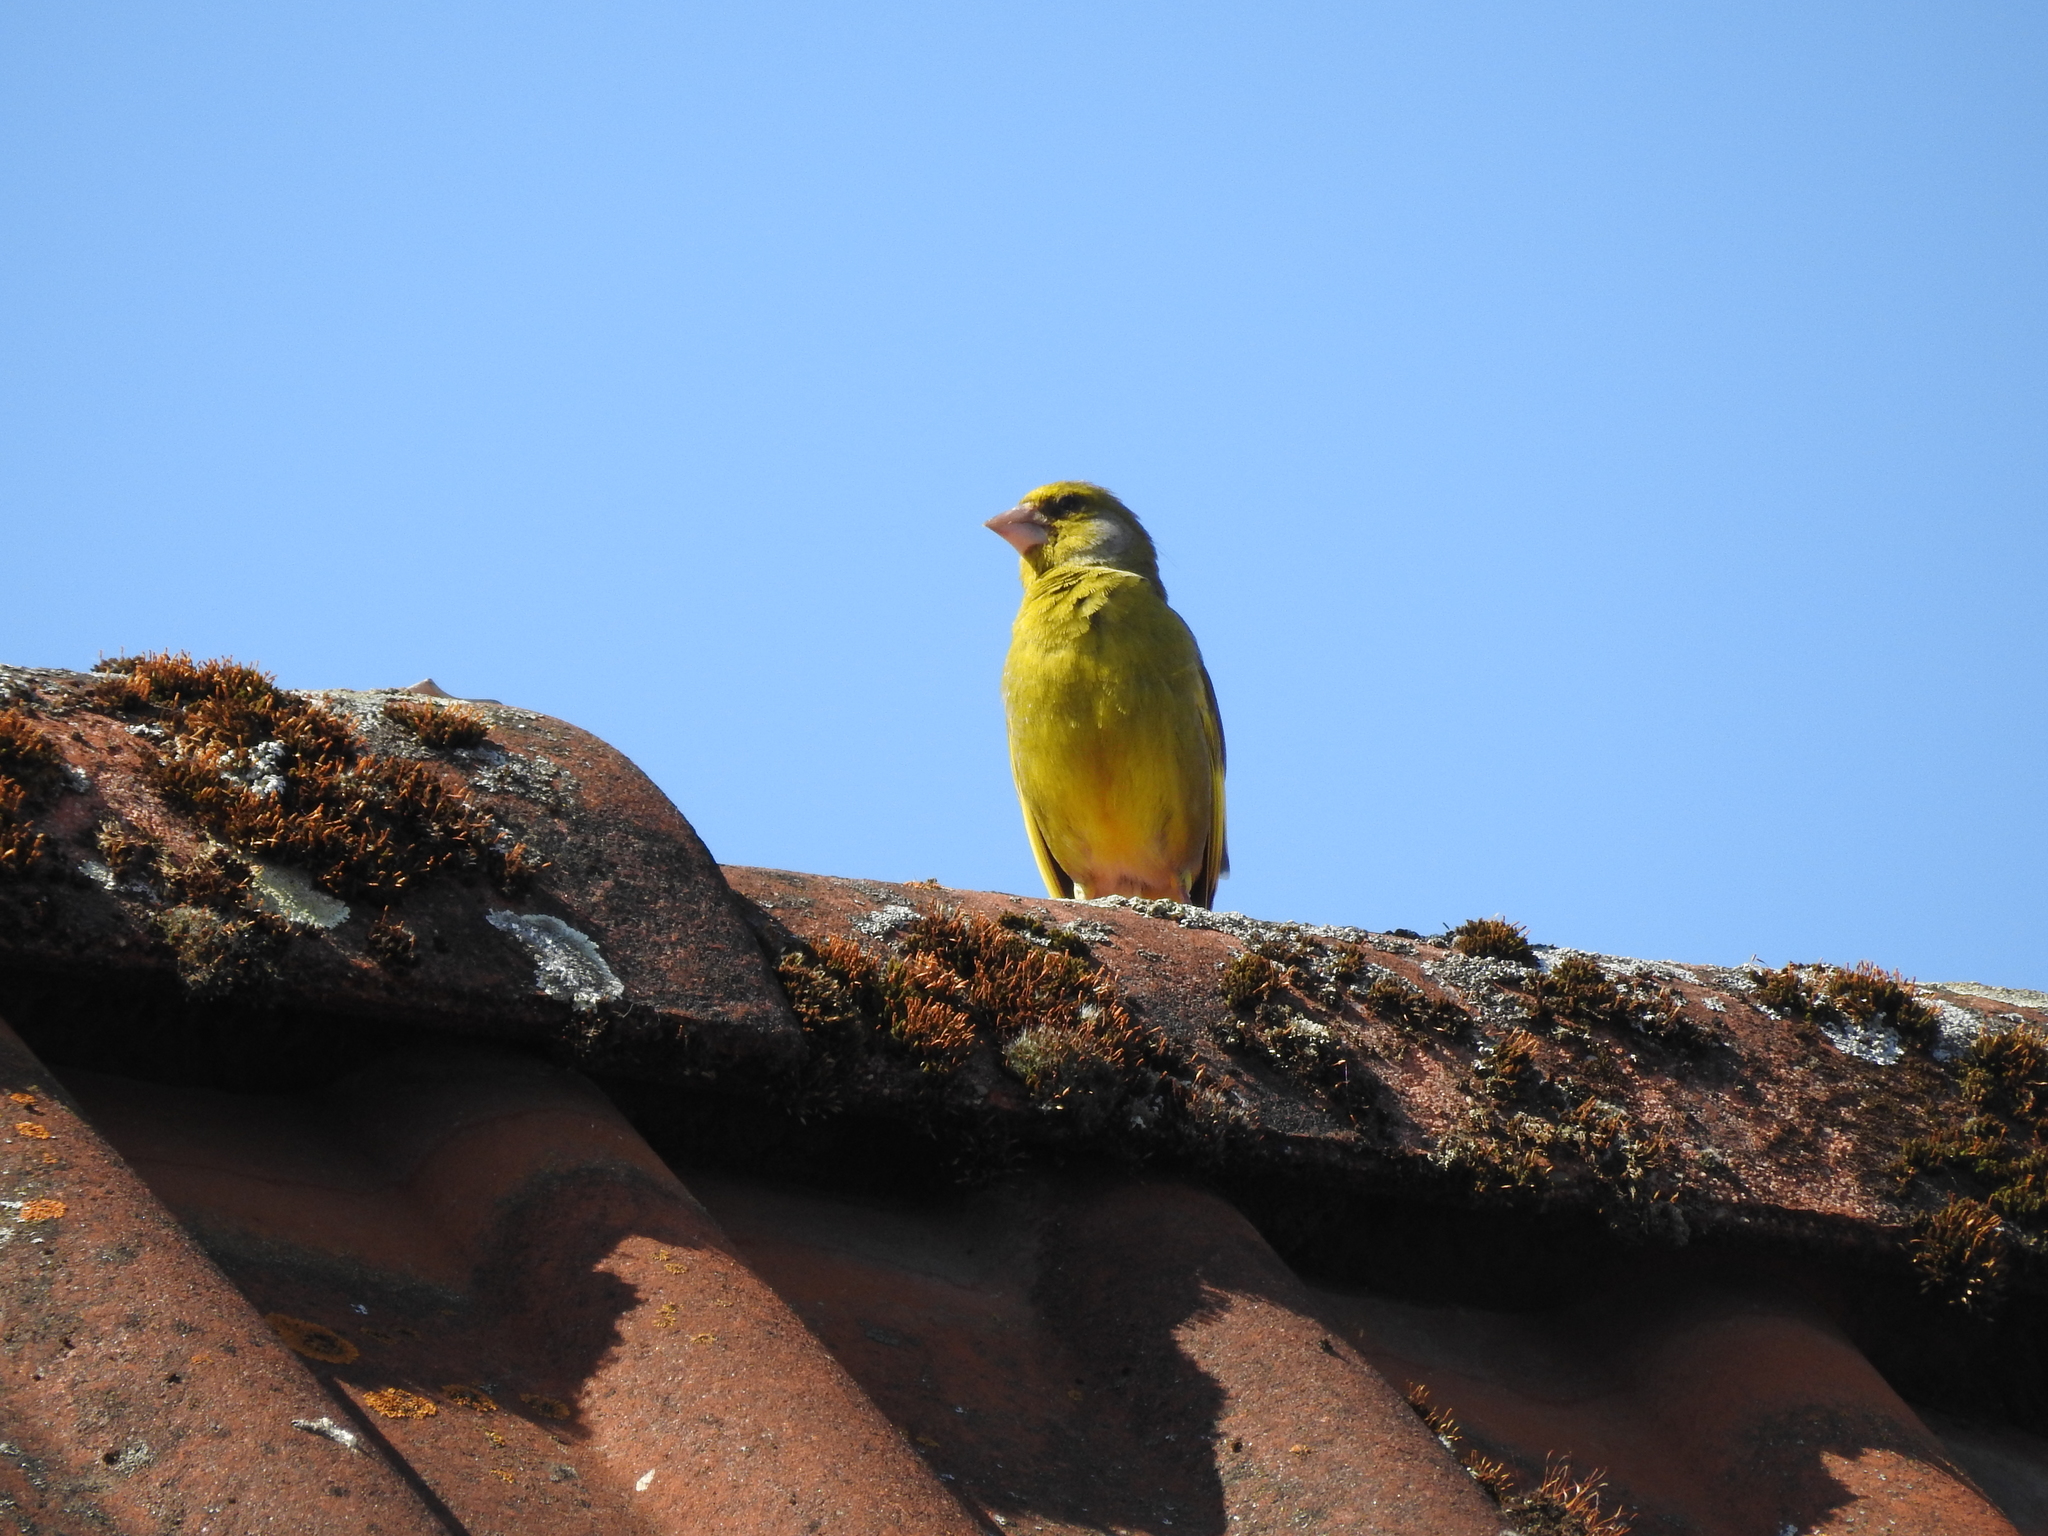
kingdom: Plantae
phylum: Tracheophyta
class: Liliopsida
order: Poales
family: Poaceae
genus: Chloris
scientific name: Chloris chloris
